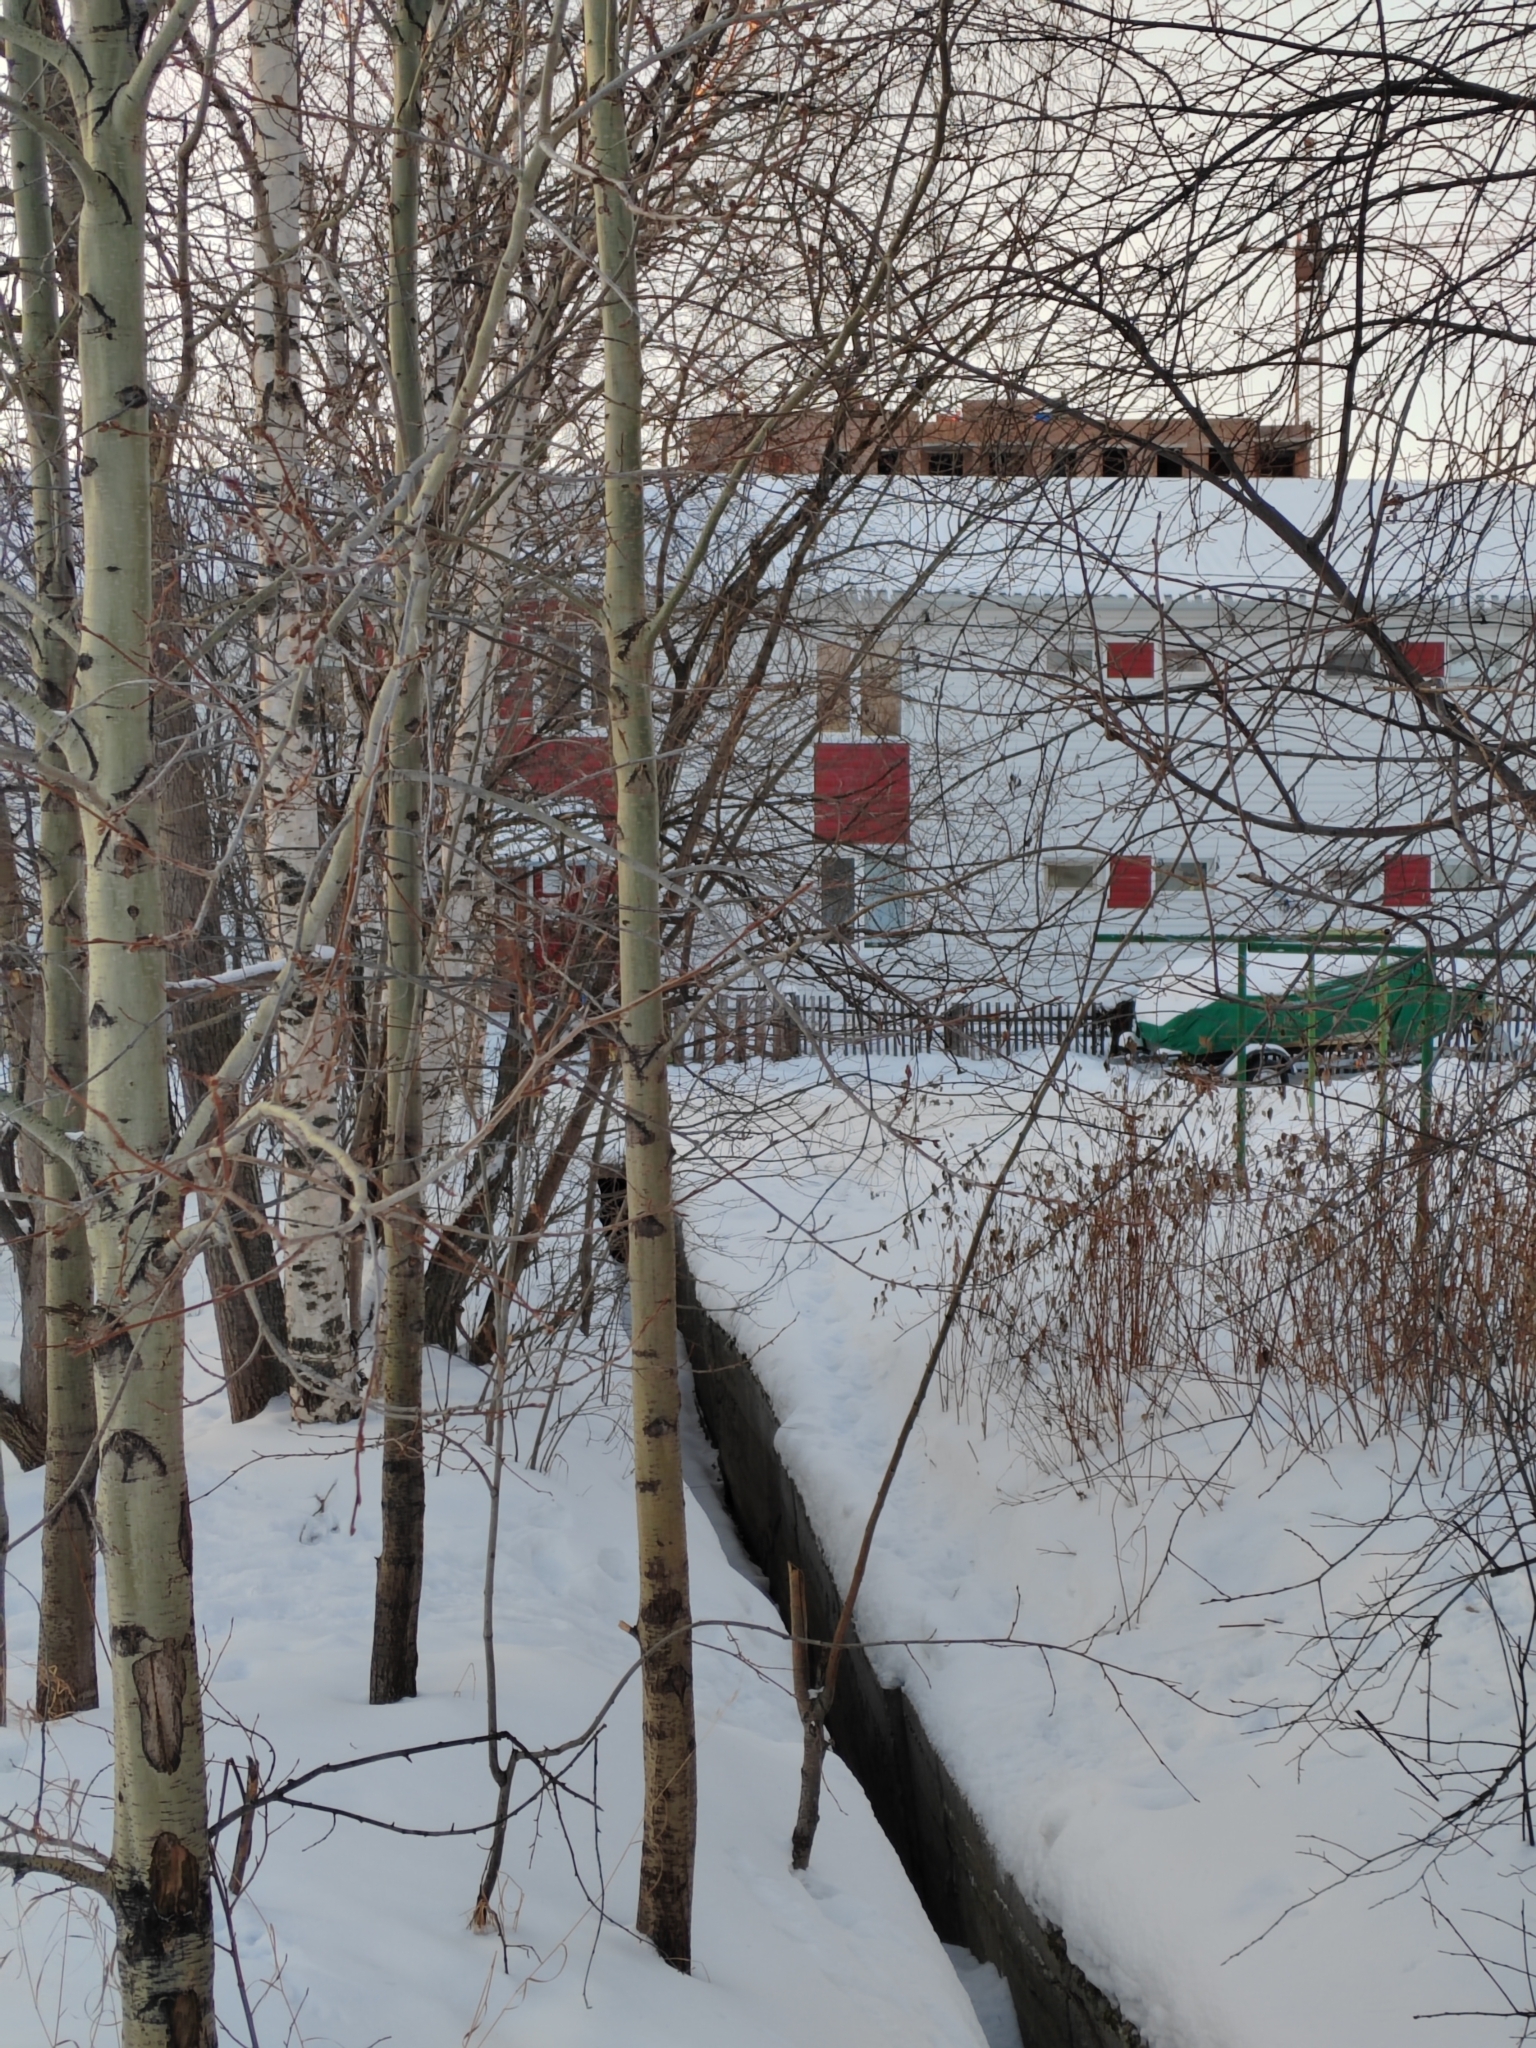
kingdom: Plantae
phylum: Tracheophyta
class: Magnoliopsida
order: Malpighiales
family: Salicaceae
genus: Populus
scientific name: Populus tremula
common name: European aspen
